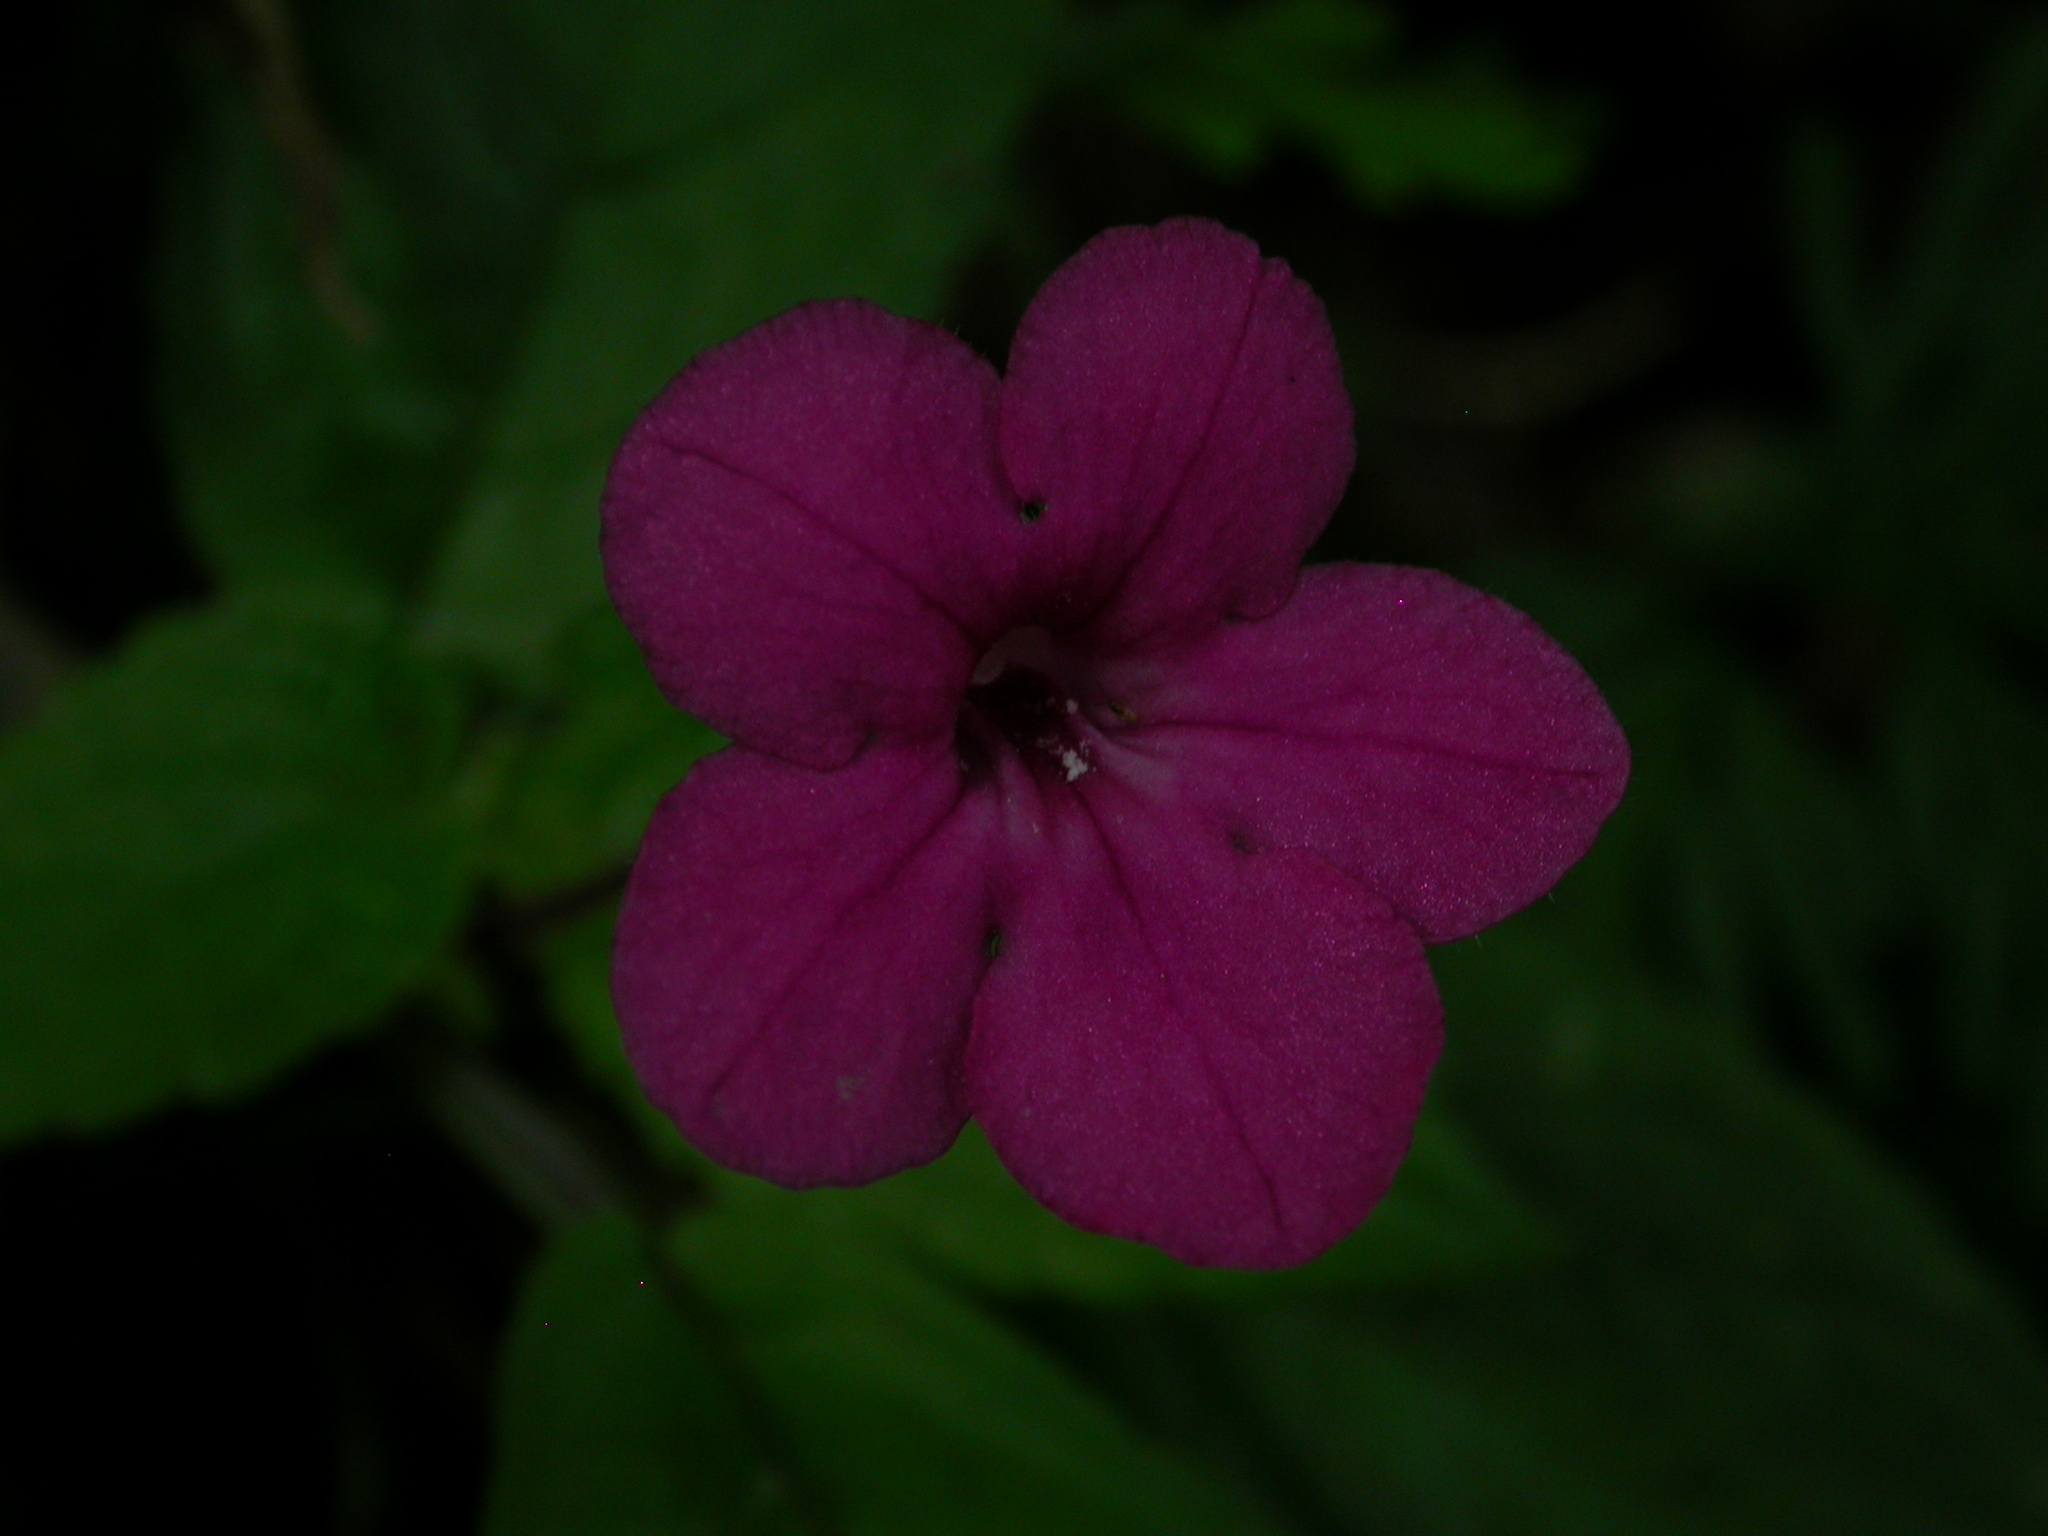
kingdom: Plantae
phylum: Tracheophyta
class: Magnoliopsida
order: Lamiales
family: Gesneriaceae
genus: Chrysothemis
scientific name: Chrysothemis melittifolia
